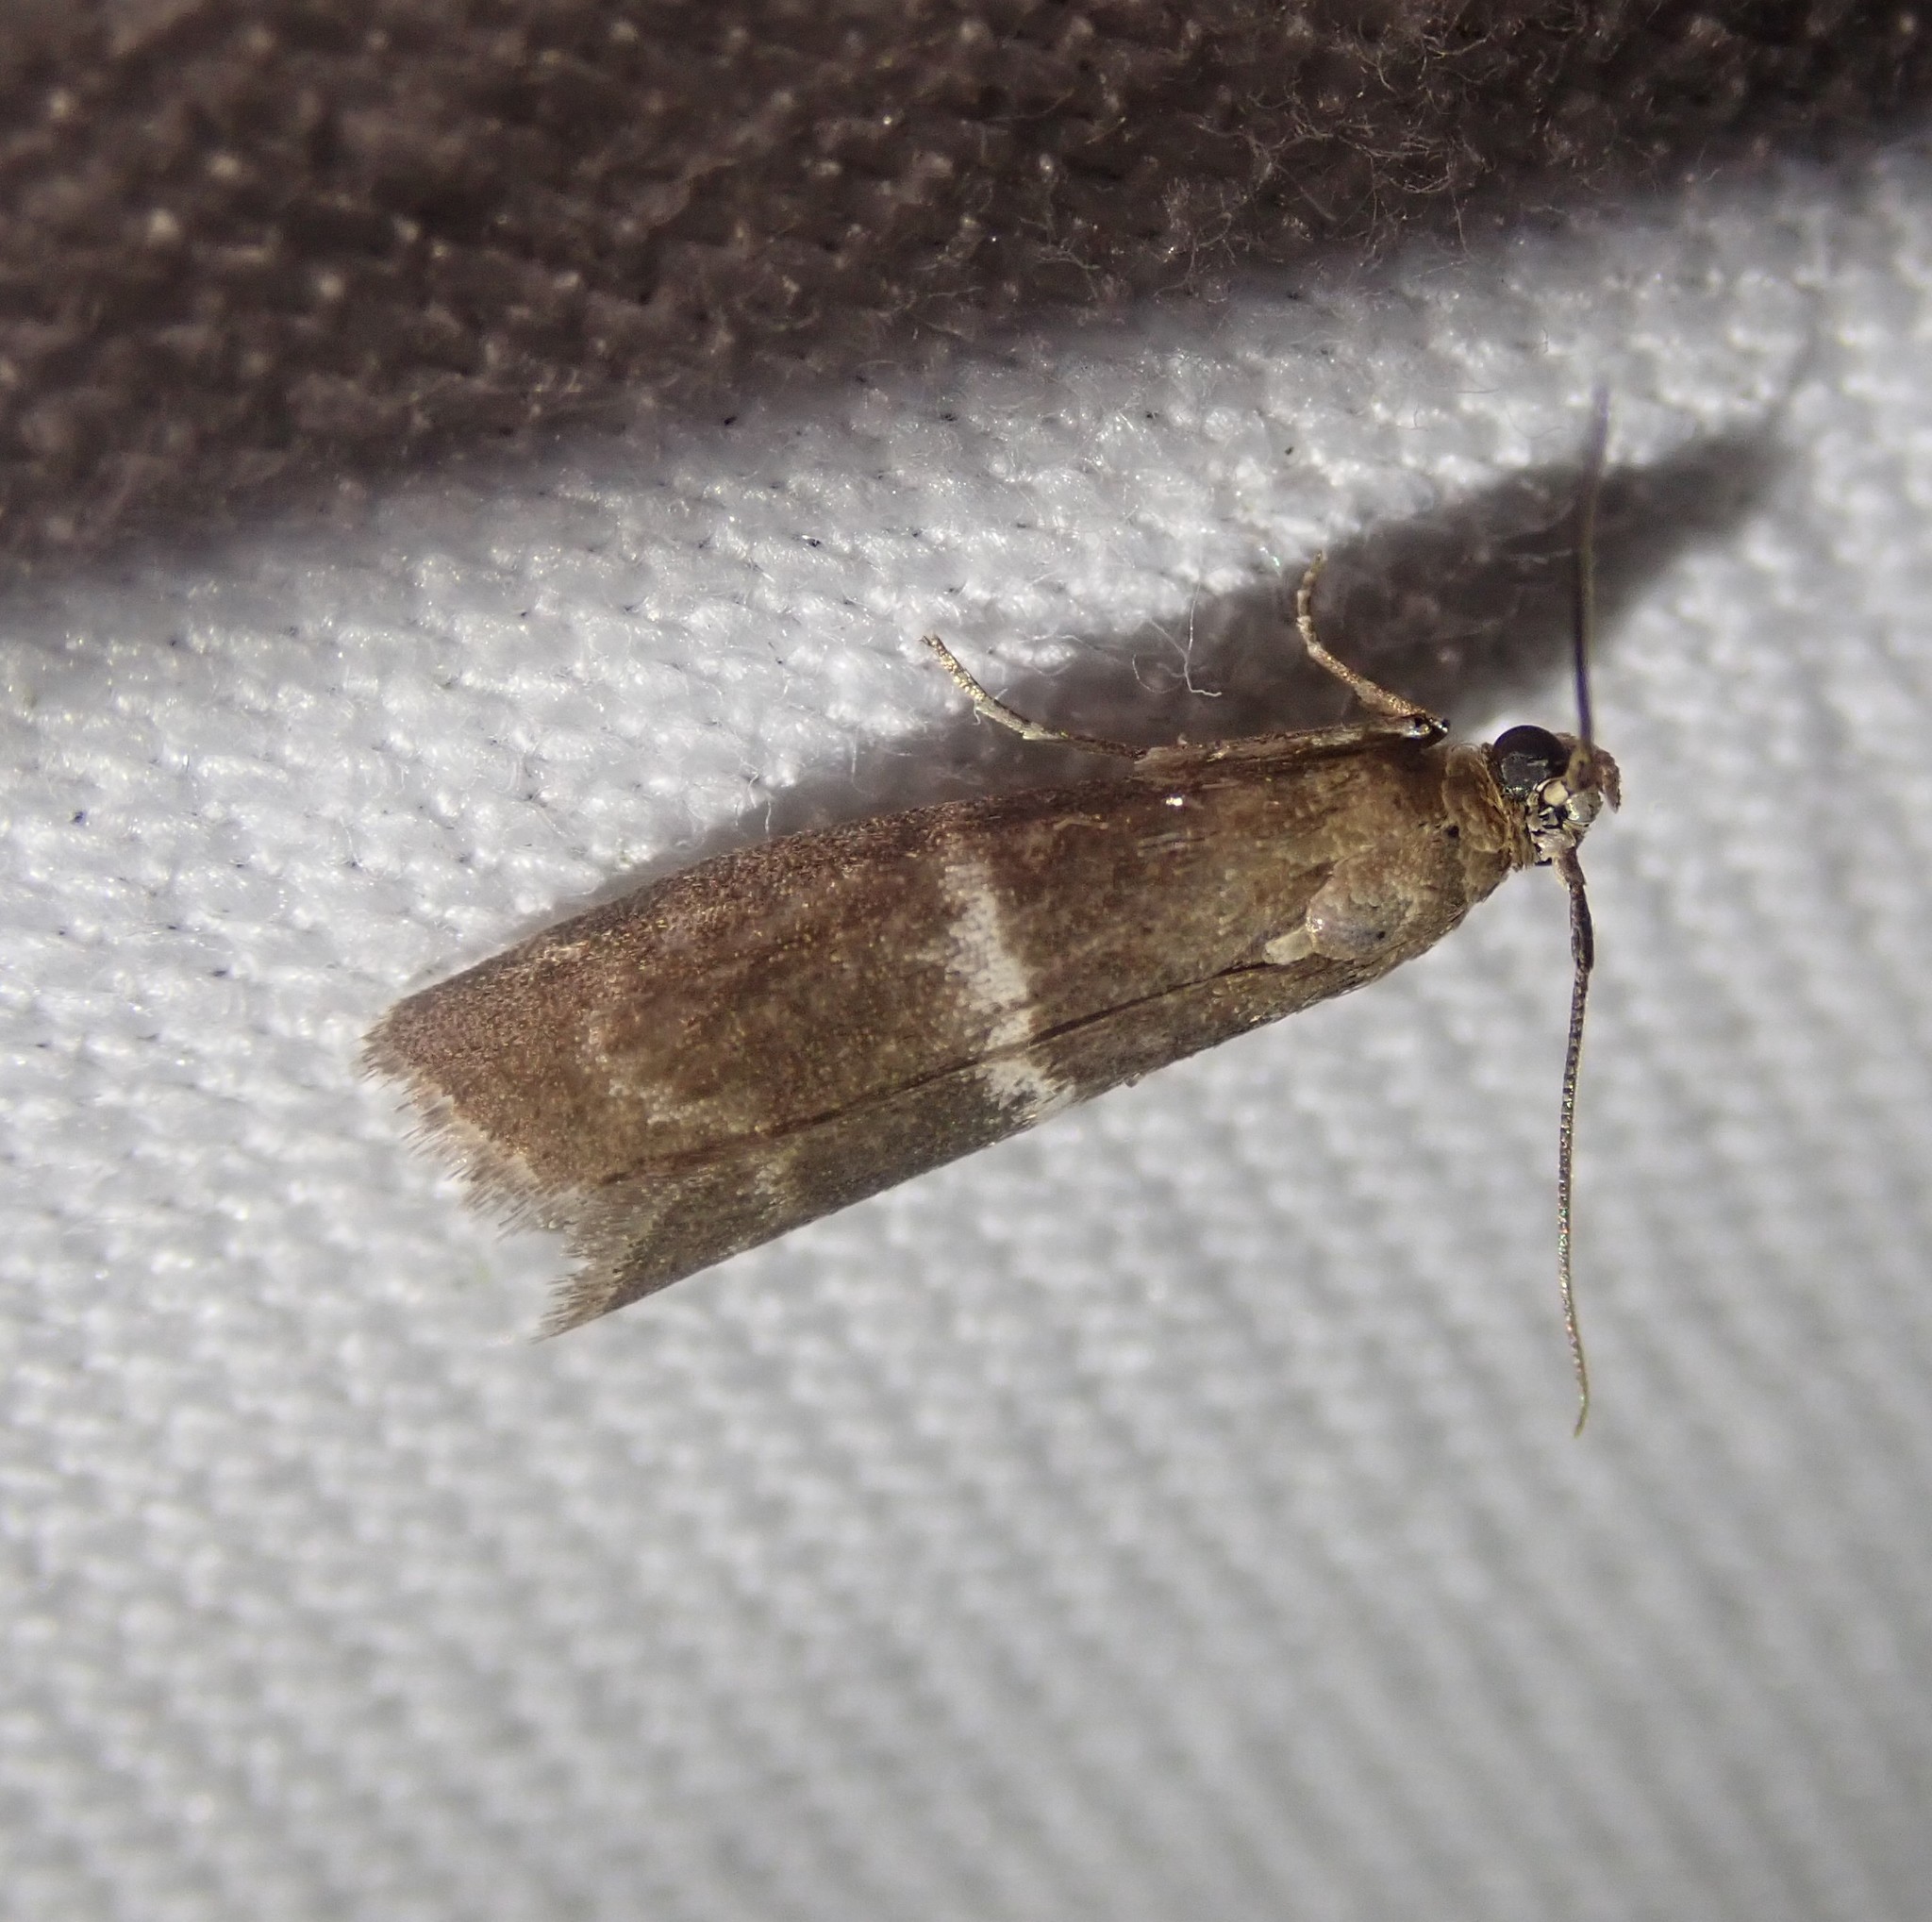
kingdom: Animalia
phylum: Arthropoda
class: Insecta
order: Lepidoptera
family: Pyralidae
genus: Elegia
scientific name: Elegia similella
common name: White-barred knot-horn
